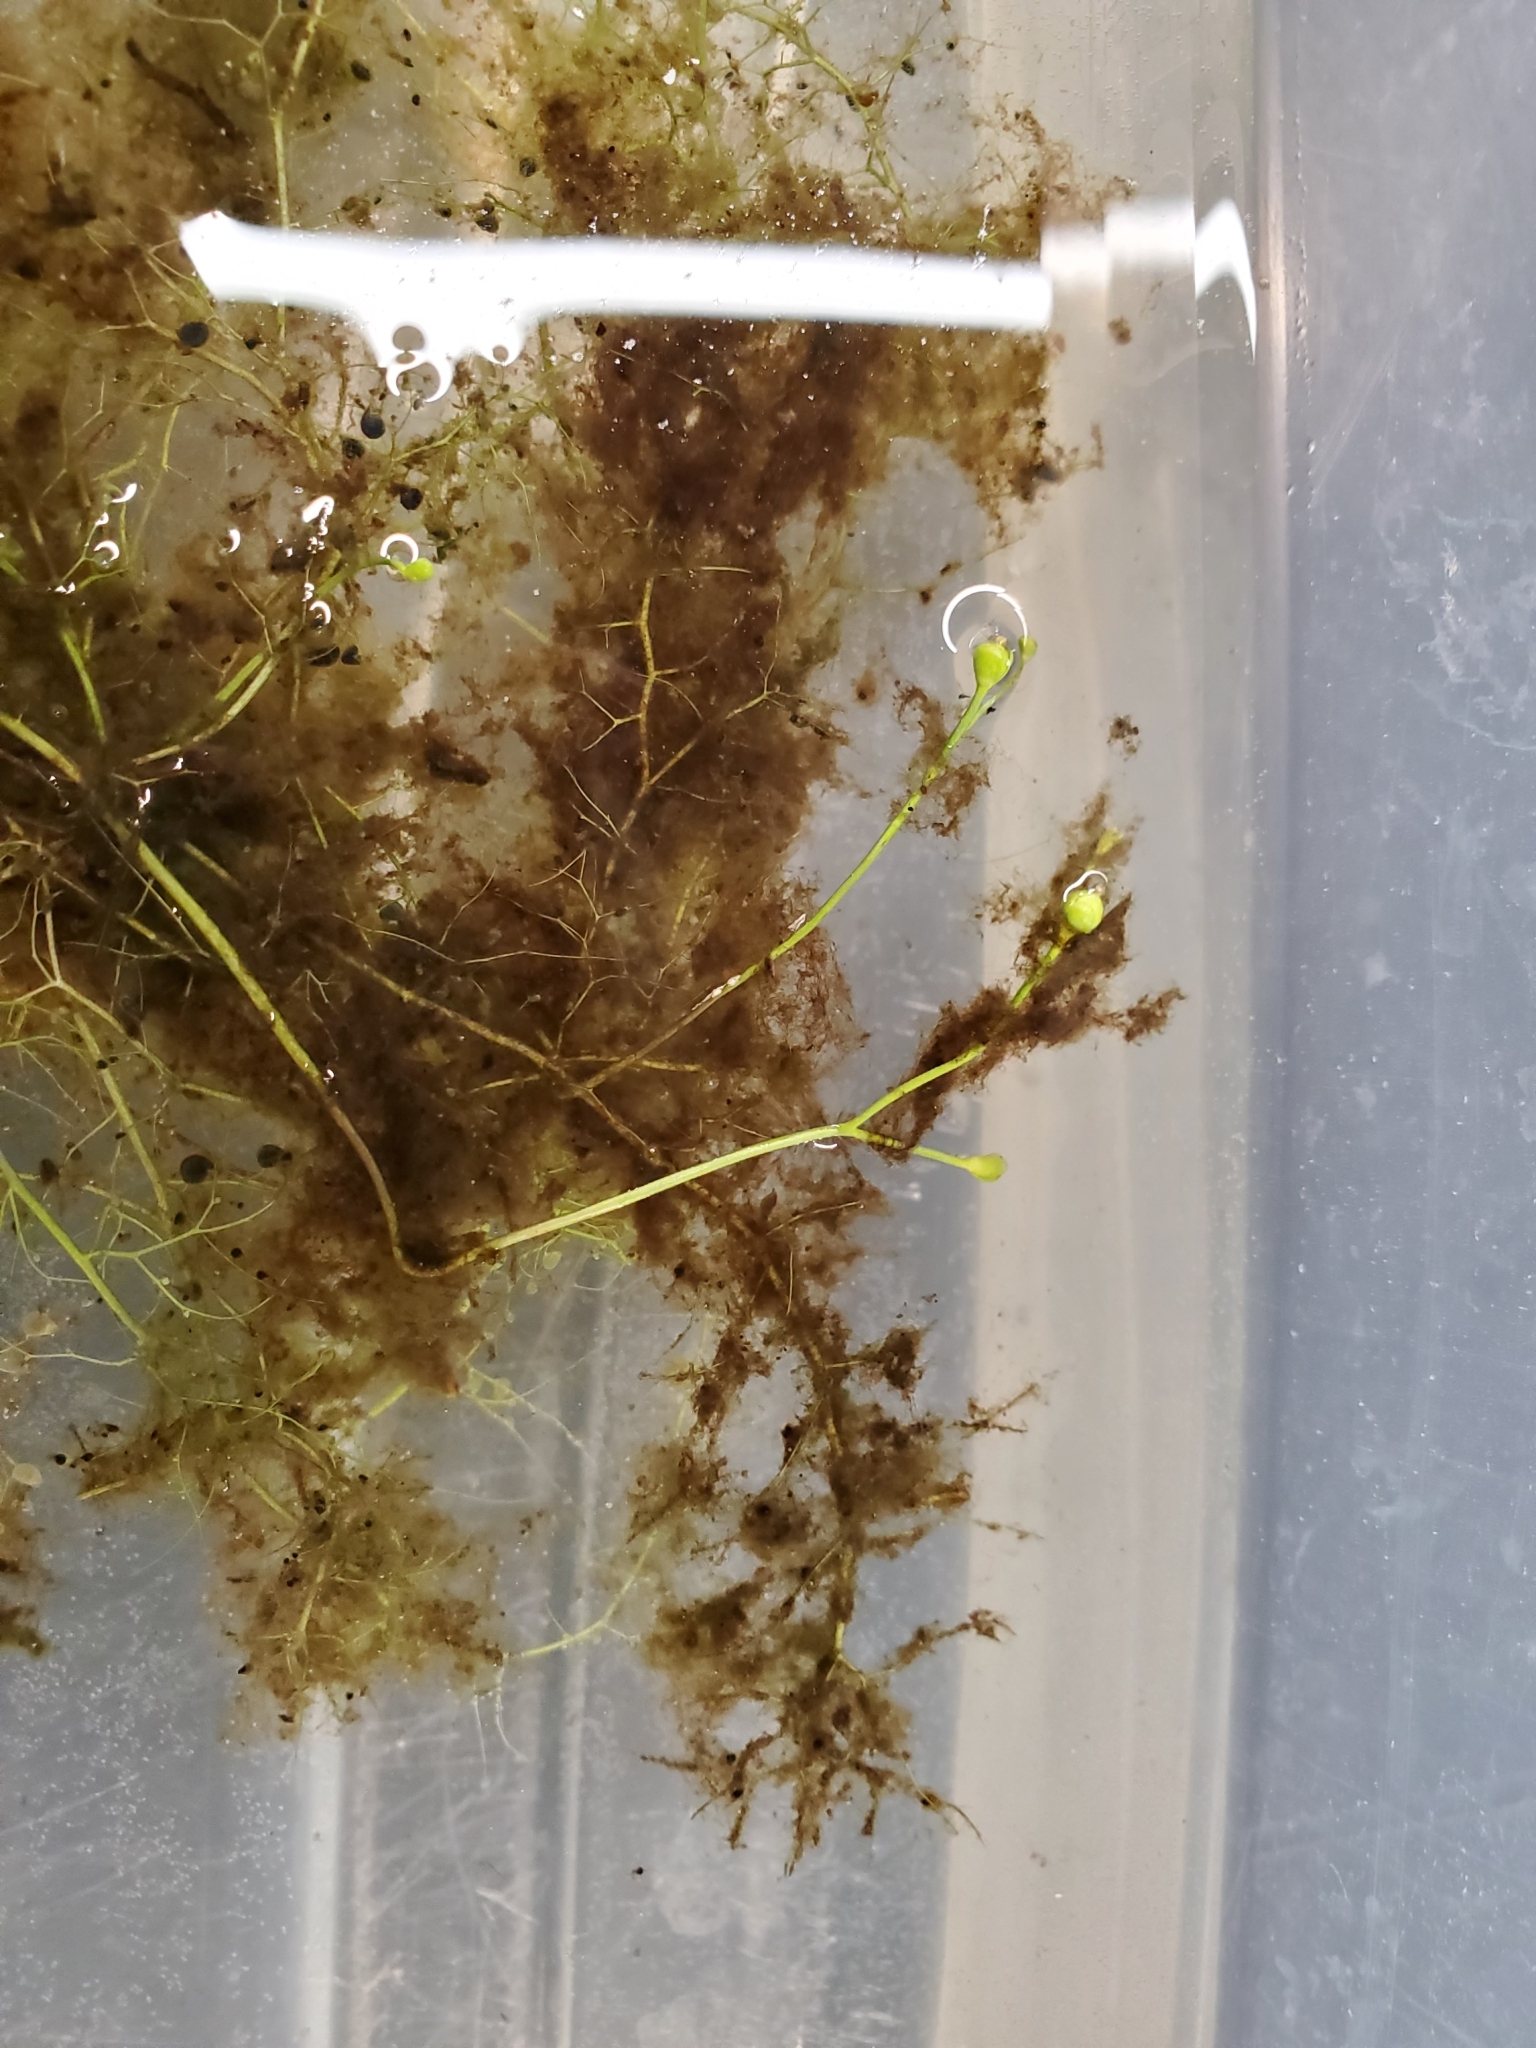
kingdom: Plantae
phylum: Tracheophyta
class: Magnoliopsida
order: Lamiales
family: Lentibulariaceae
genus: Utricularia
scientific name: Utricularia gibba
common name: Humped bladderwort
